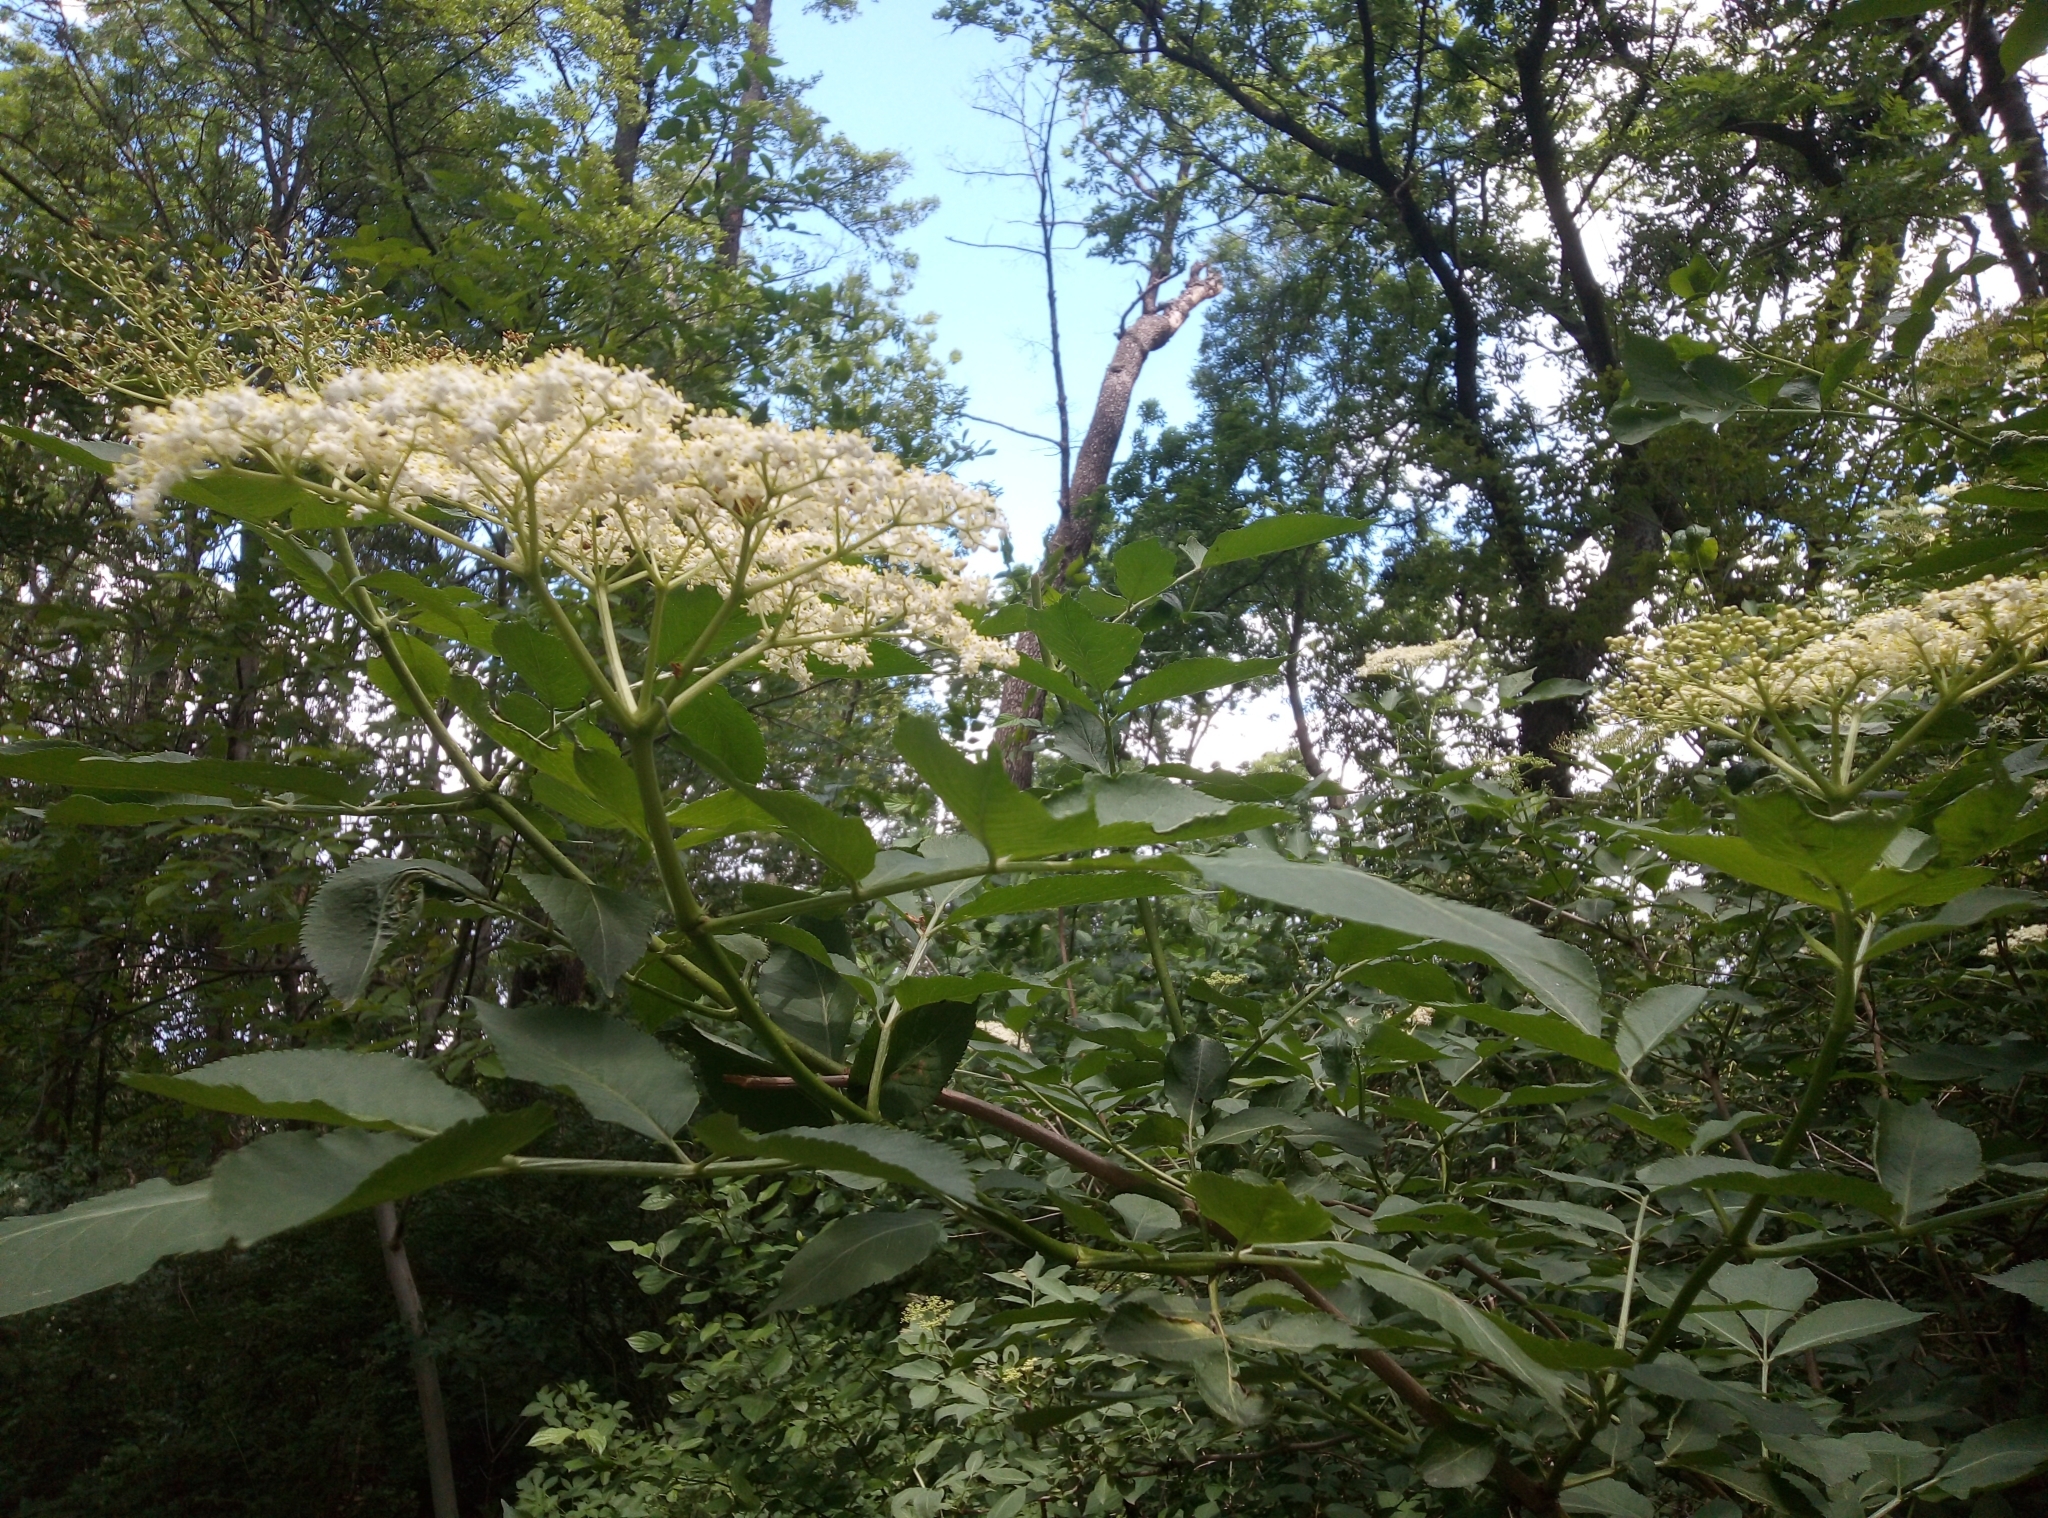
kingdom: Plantae
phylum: Tracheophyta
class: Magnoliopsida
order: Dipsacales
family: Viburnaceae
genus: Sambucus
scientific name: Sambucus nigra
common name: Elder
